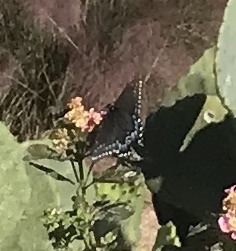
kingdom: Animalia
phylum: Arthropoda
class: Insecta
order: Lepidoptera
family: Papilionidae
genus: Papilio
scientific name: Papilio polyxenes
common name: Black swallowtail
